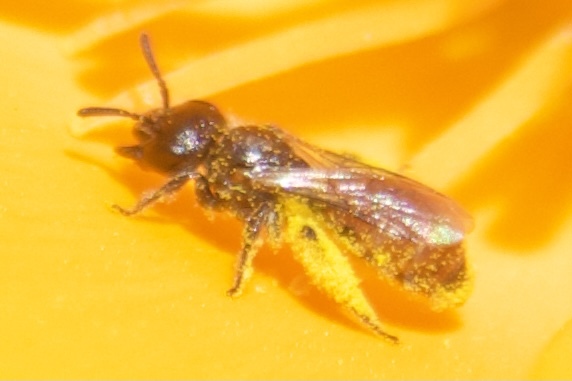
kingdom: Animalia
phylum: Arthropoda
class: Insecta
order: Hymenoptera
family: Halictidae
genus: Micralictoides
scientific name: Micralictoides ruficaudus
